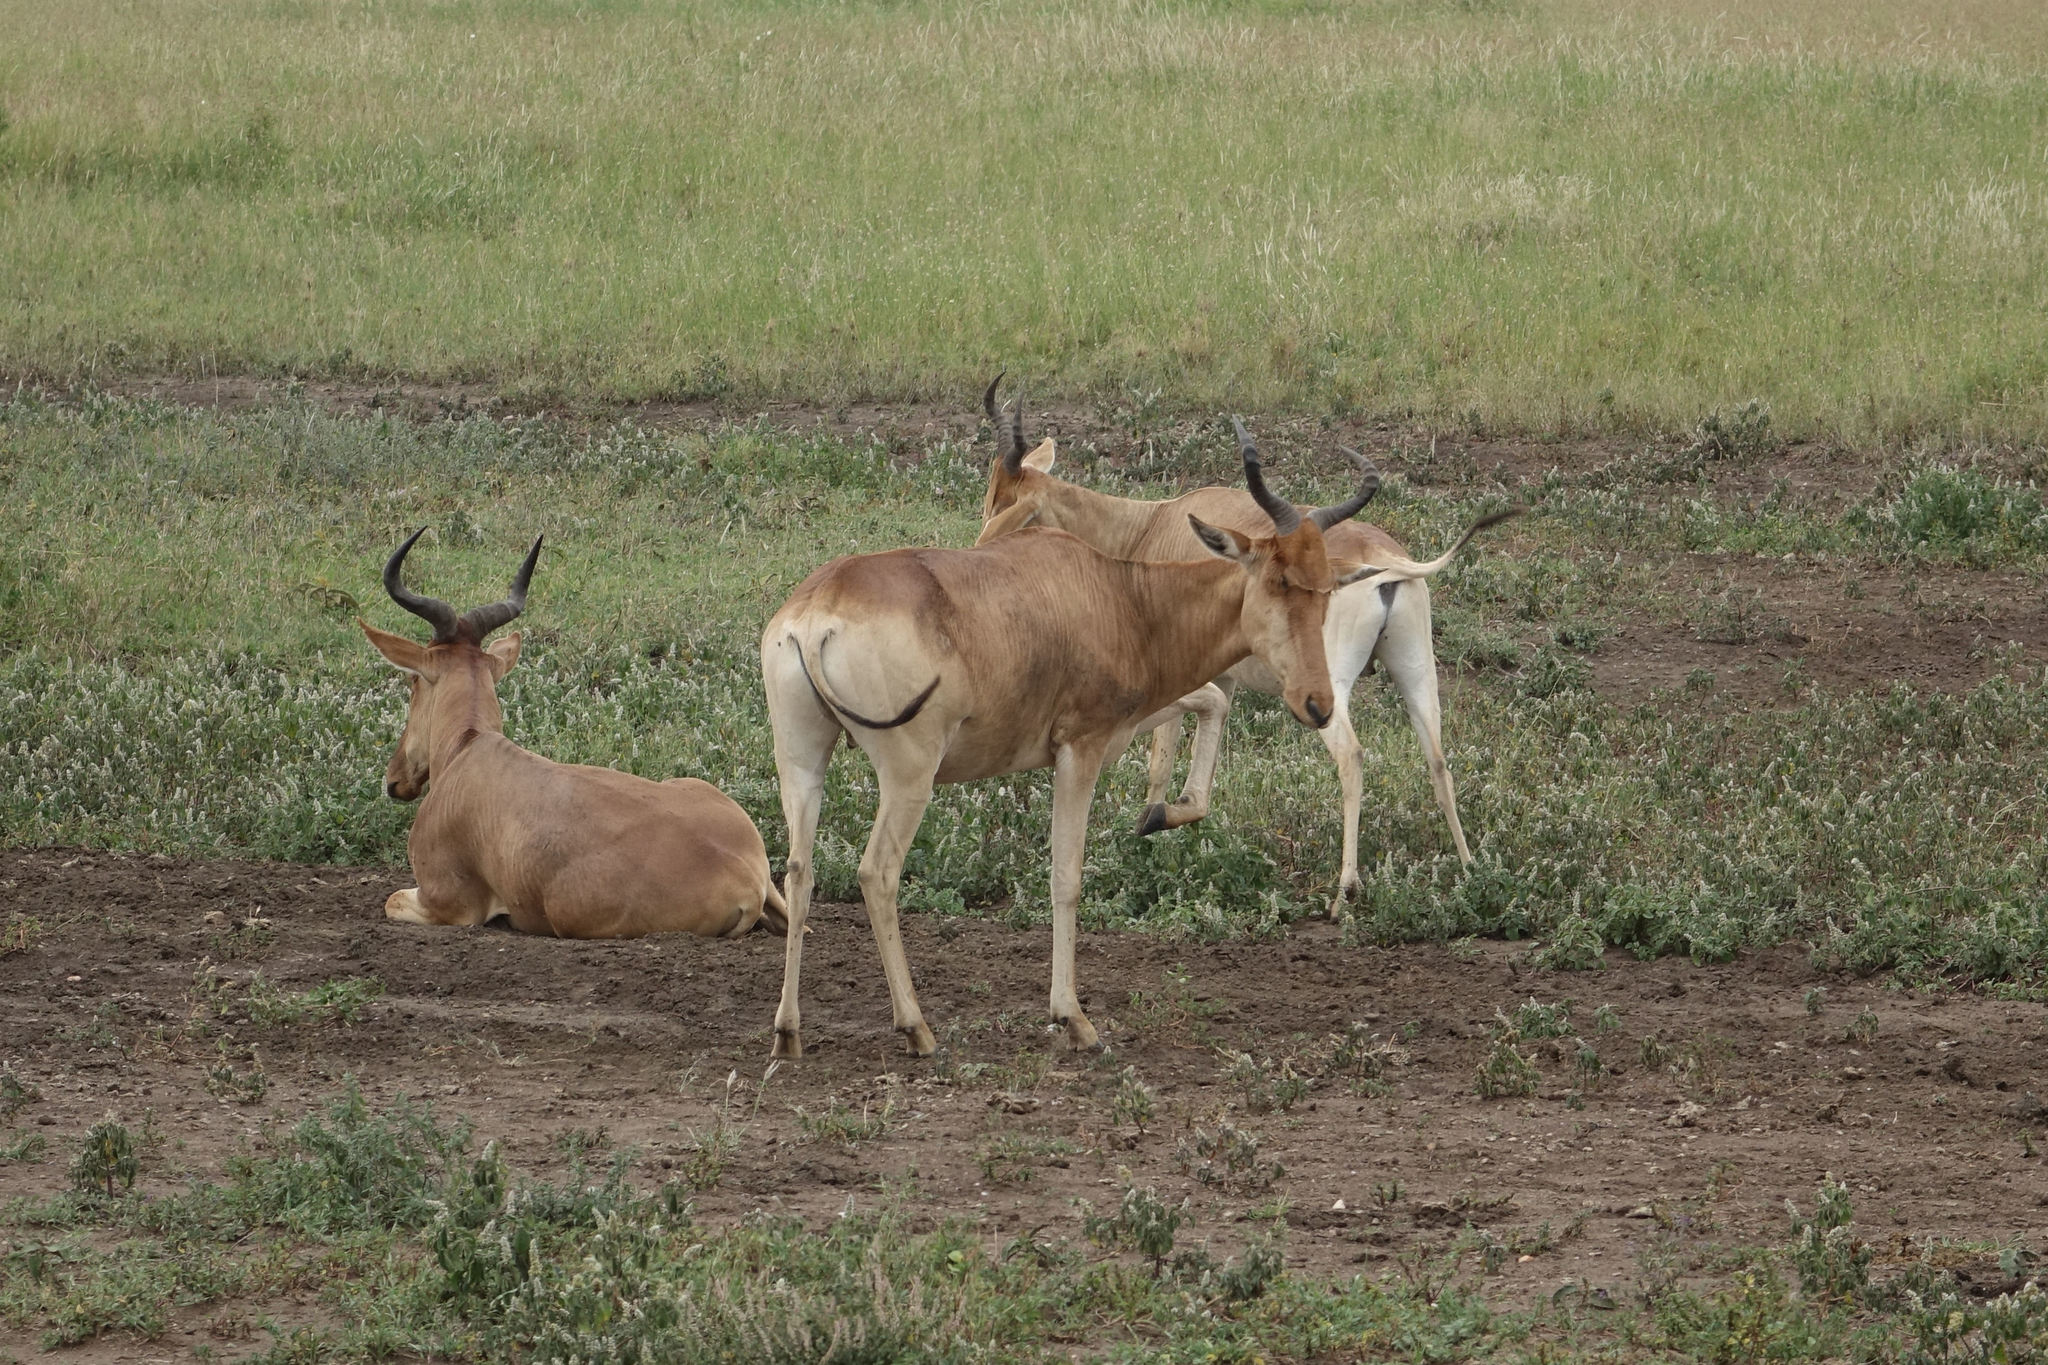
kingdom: Animalia
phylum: Chordata
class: Mammalia
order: Artiodactyla
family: Bovidae
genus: Alcelaphus
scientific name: Alcelaphus buselaphus
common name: Hartebeest
